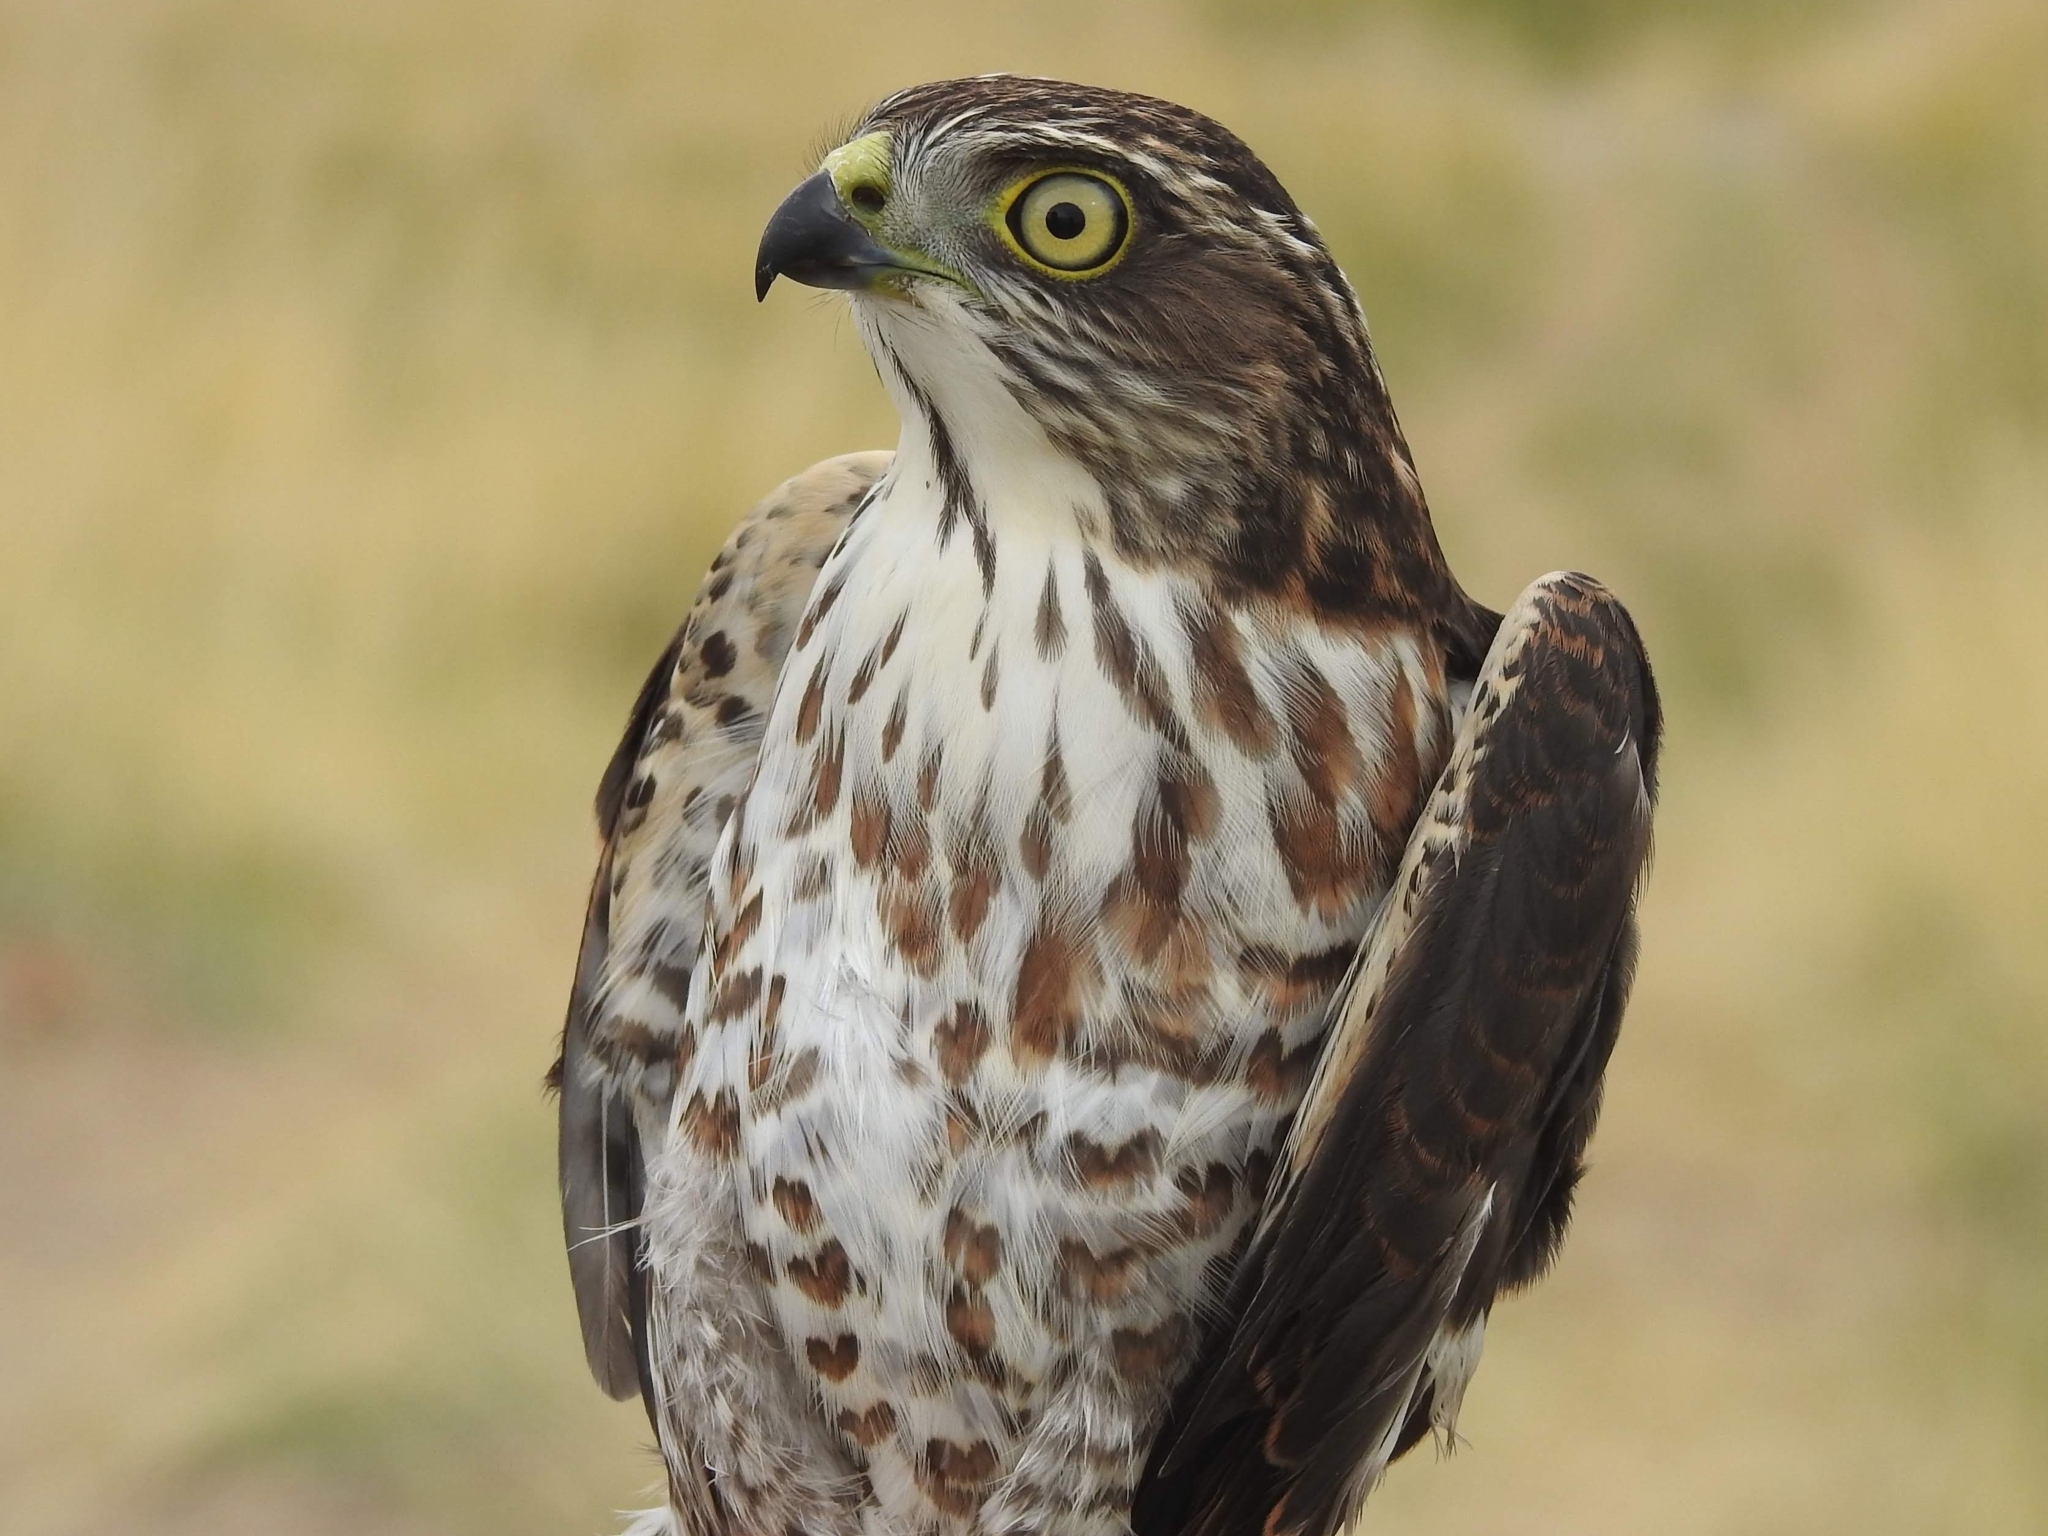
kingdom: Animalia
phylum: Chordata
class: Aves
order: Accipitriformes
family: Accipitridae
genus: Accipiter
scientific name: Accipiter gularis
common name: Japanese sparrowhawk
